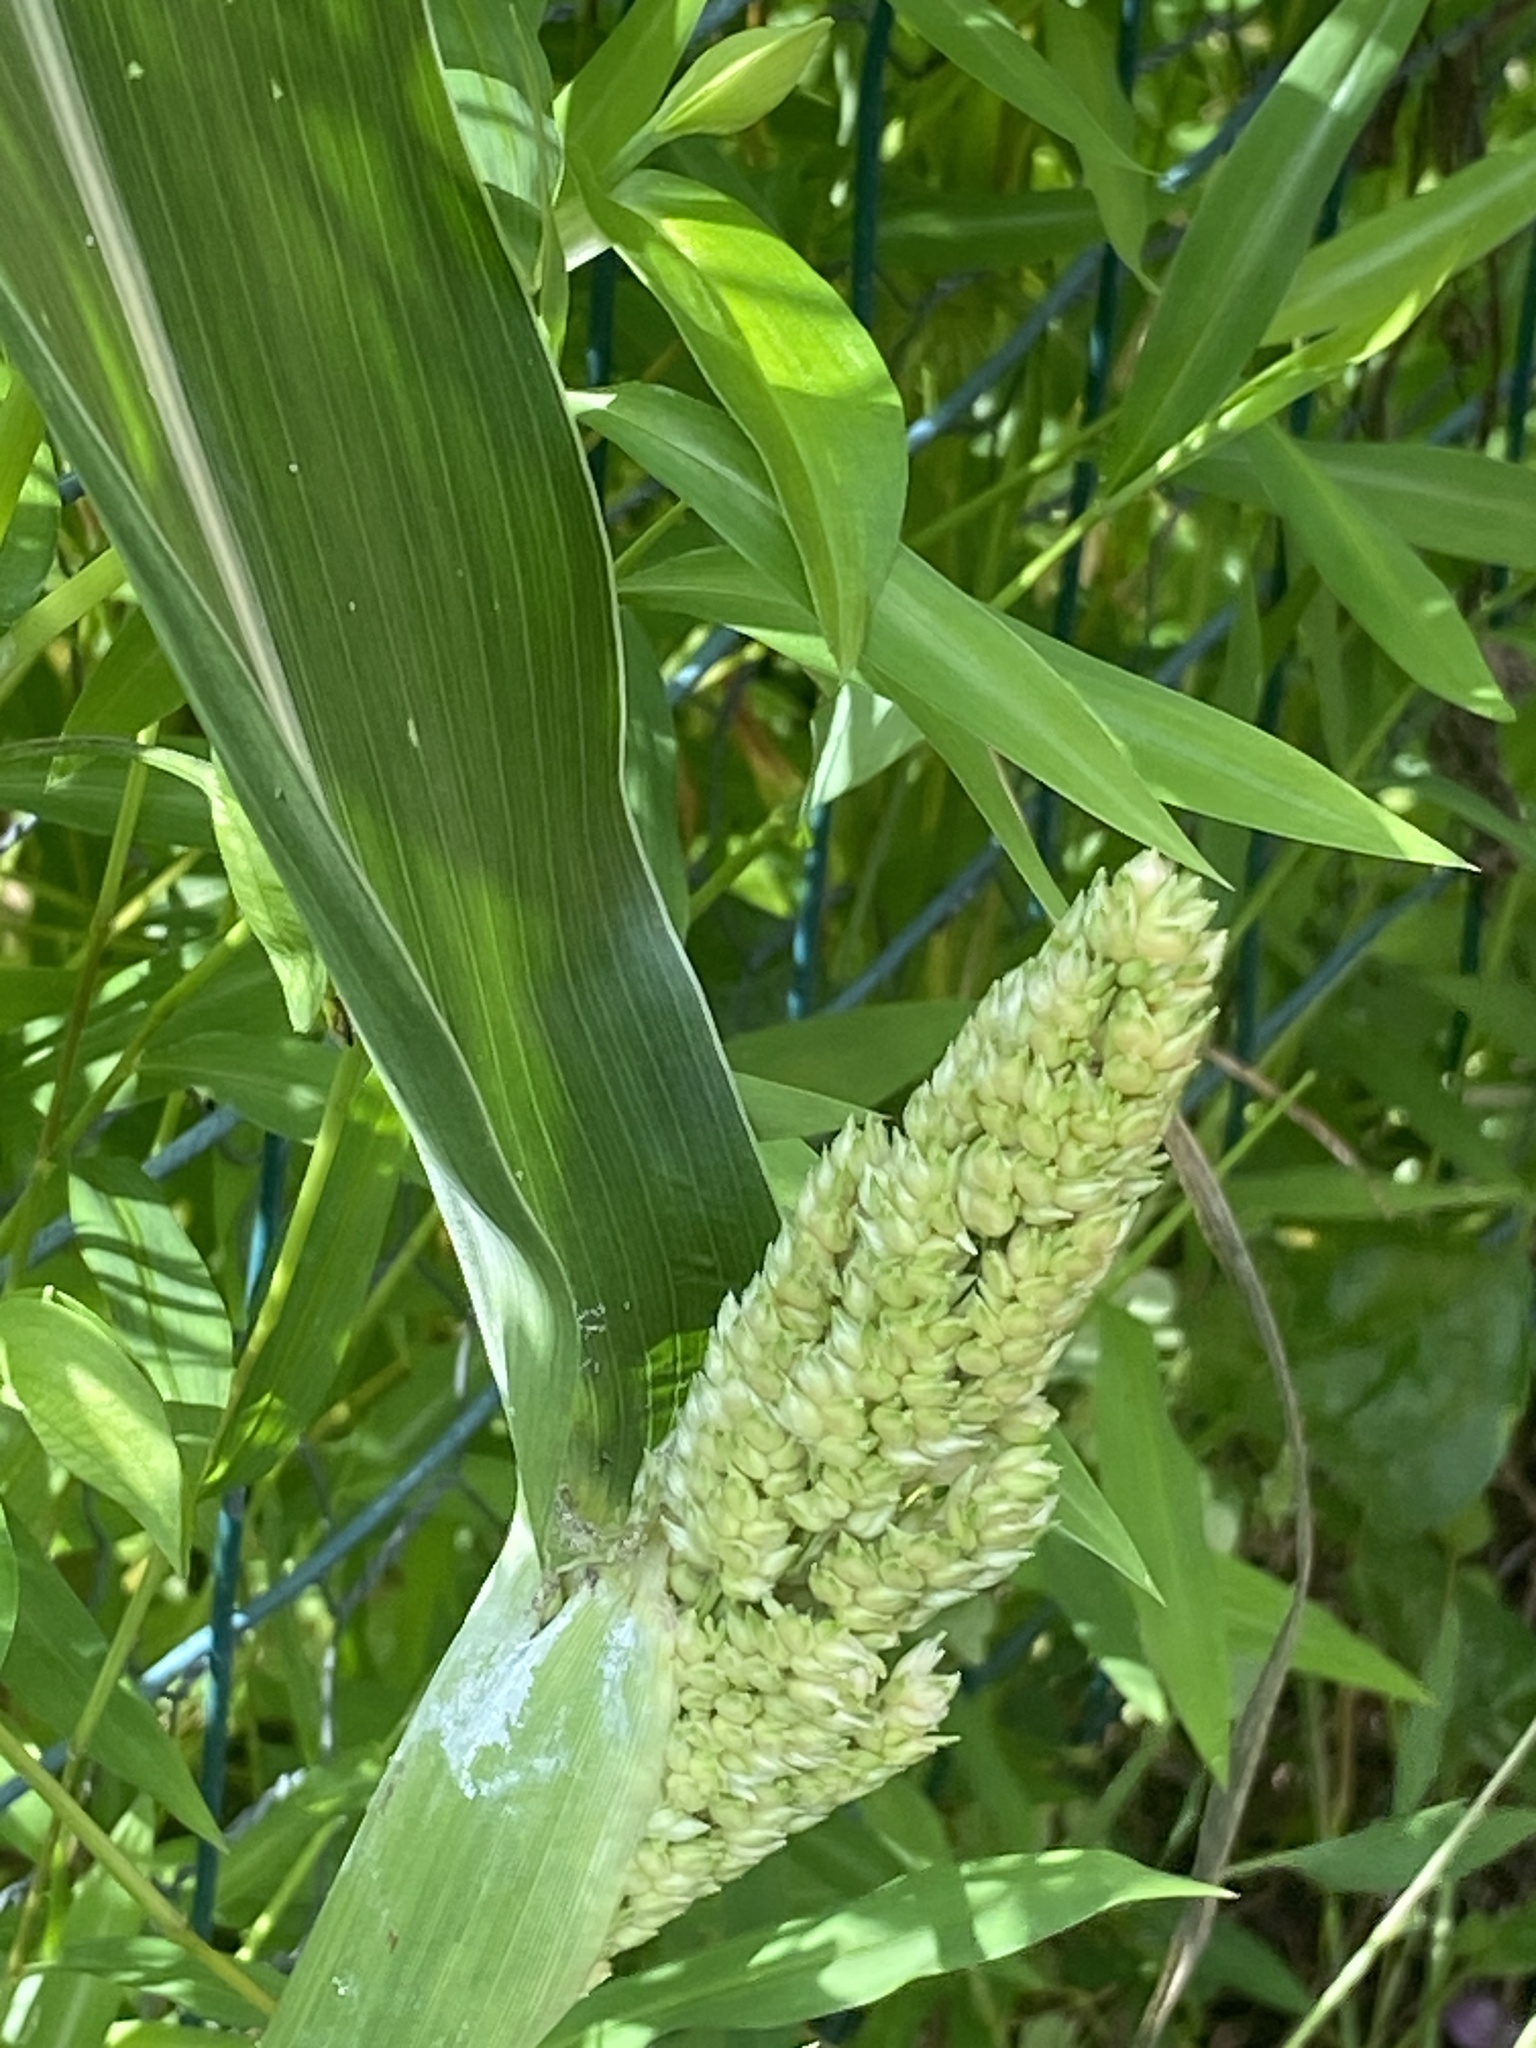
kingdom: Plantae
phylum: Tracheophyta
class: Liliopsida
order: Poales
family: Poaceae
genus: Sorghum
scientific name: Sorghum bicolor
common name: Sorghum
